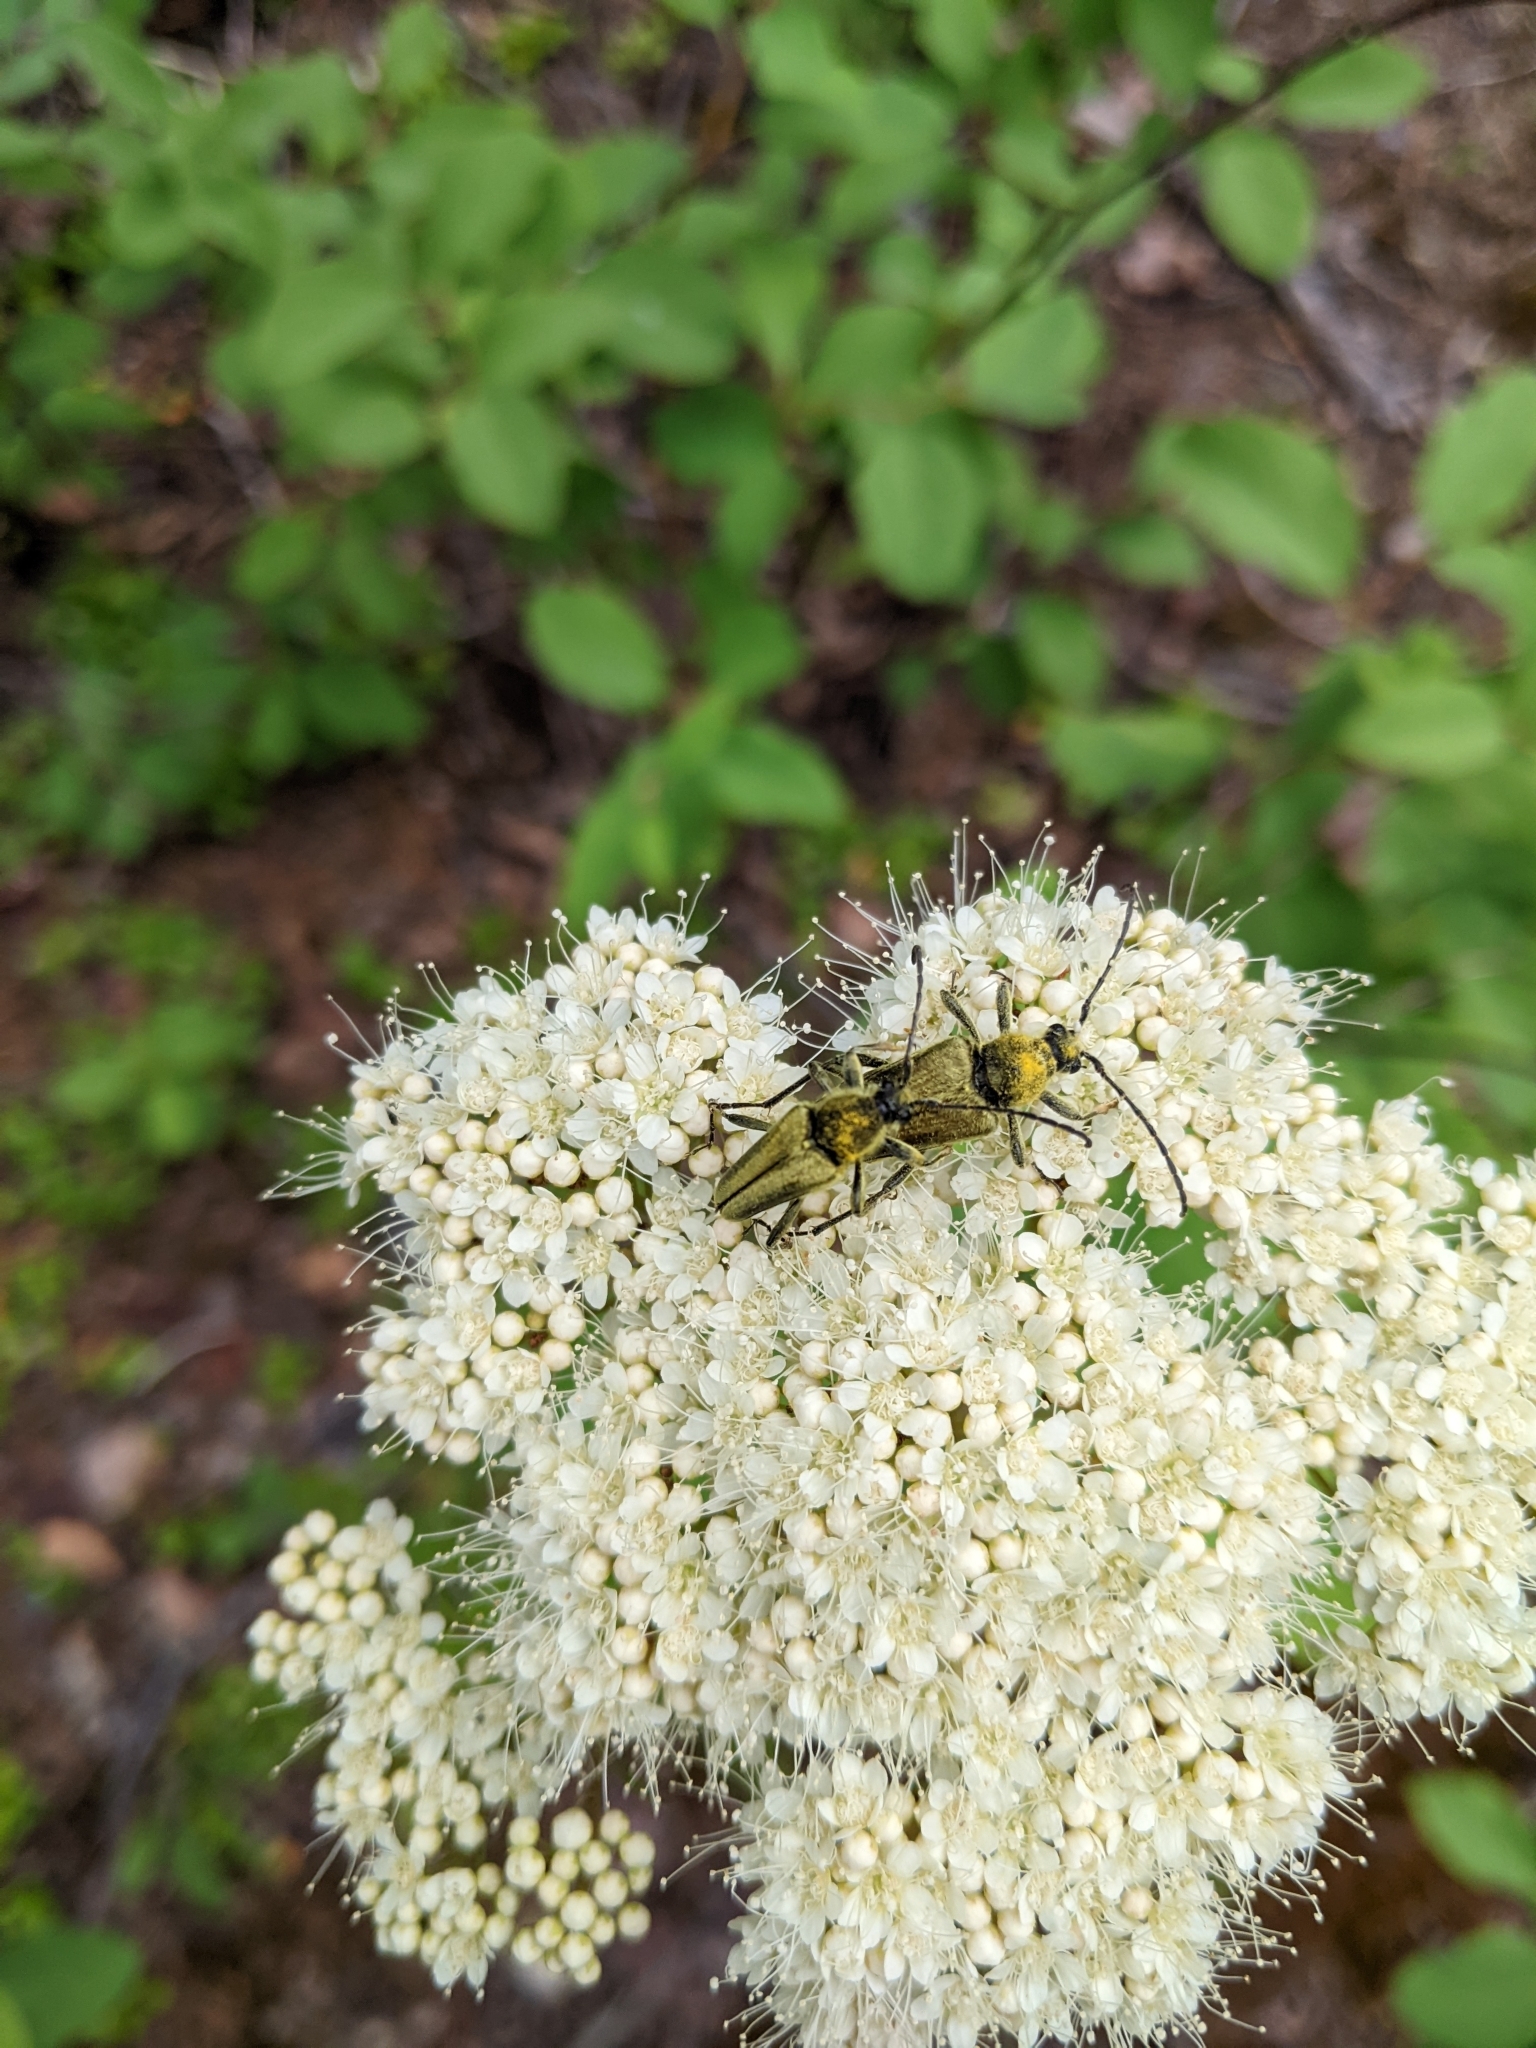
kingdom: Animalia
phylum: Arthropoda
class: Insecta
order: Coleoptera
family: Cerambycidae
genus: Cosmosalia
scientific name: Cosmosalia chrysocoma
